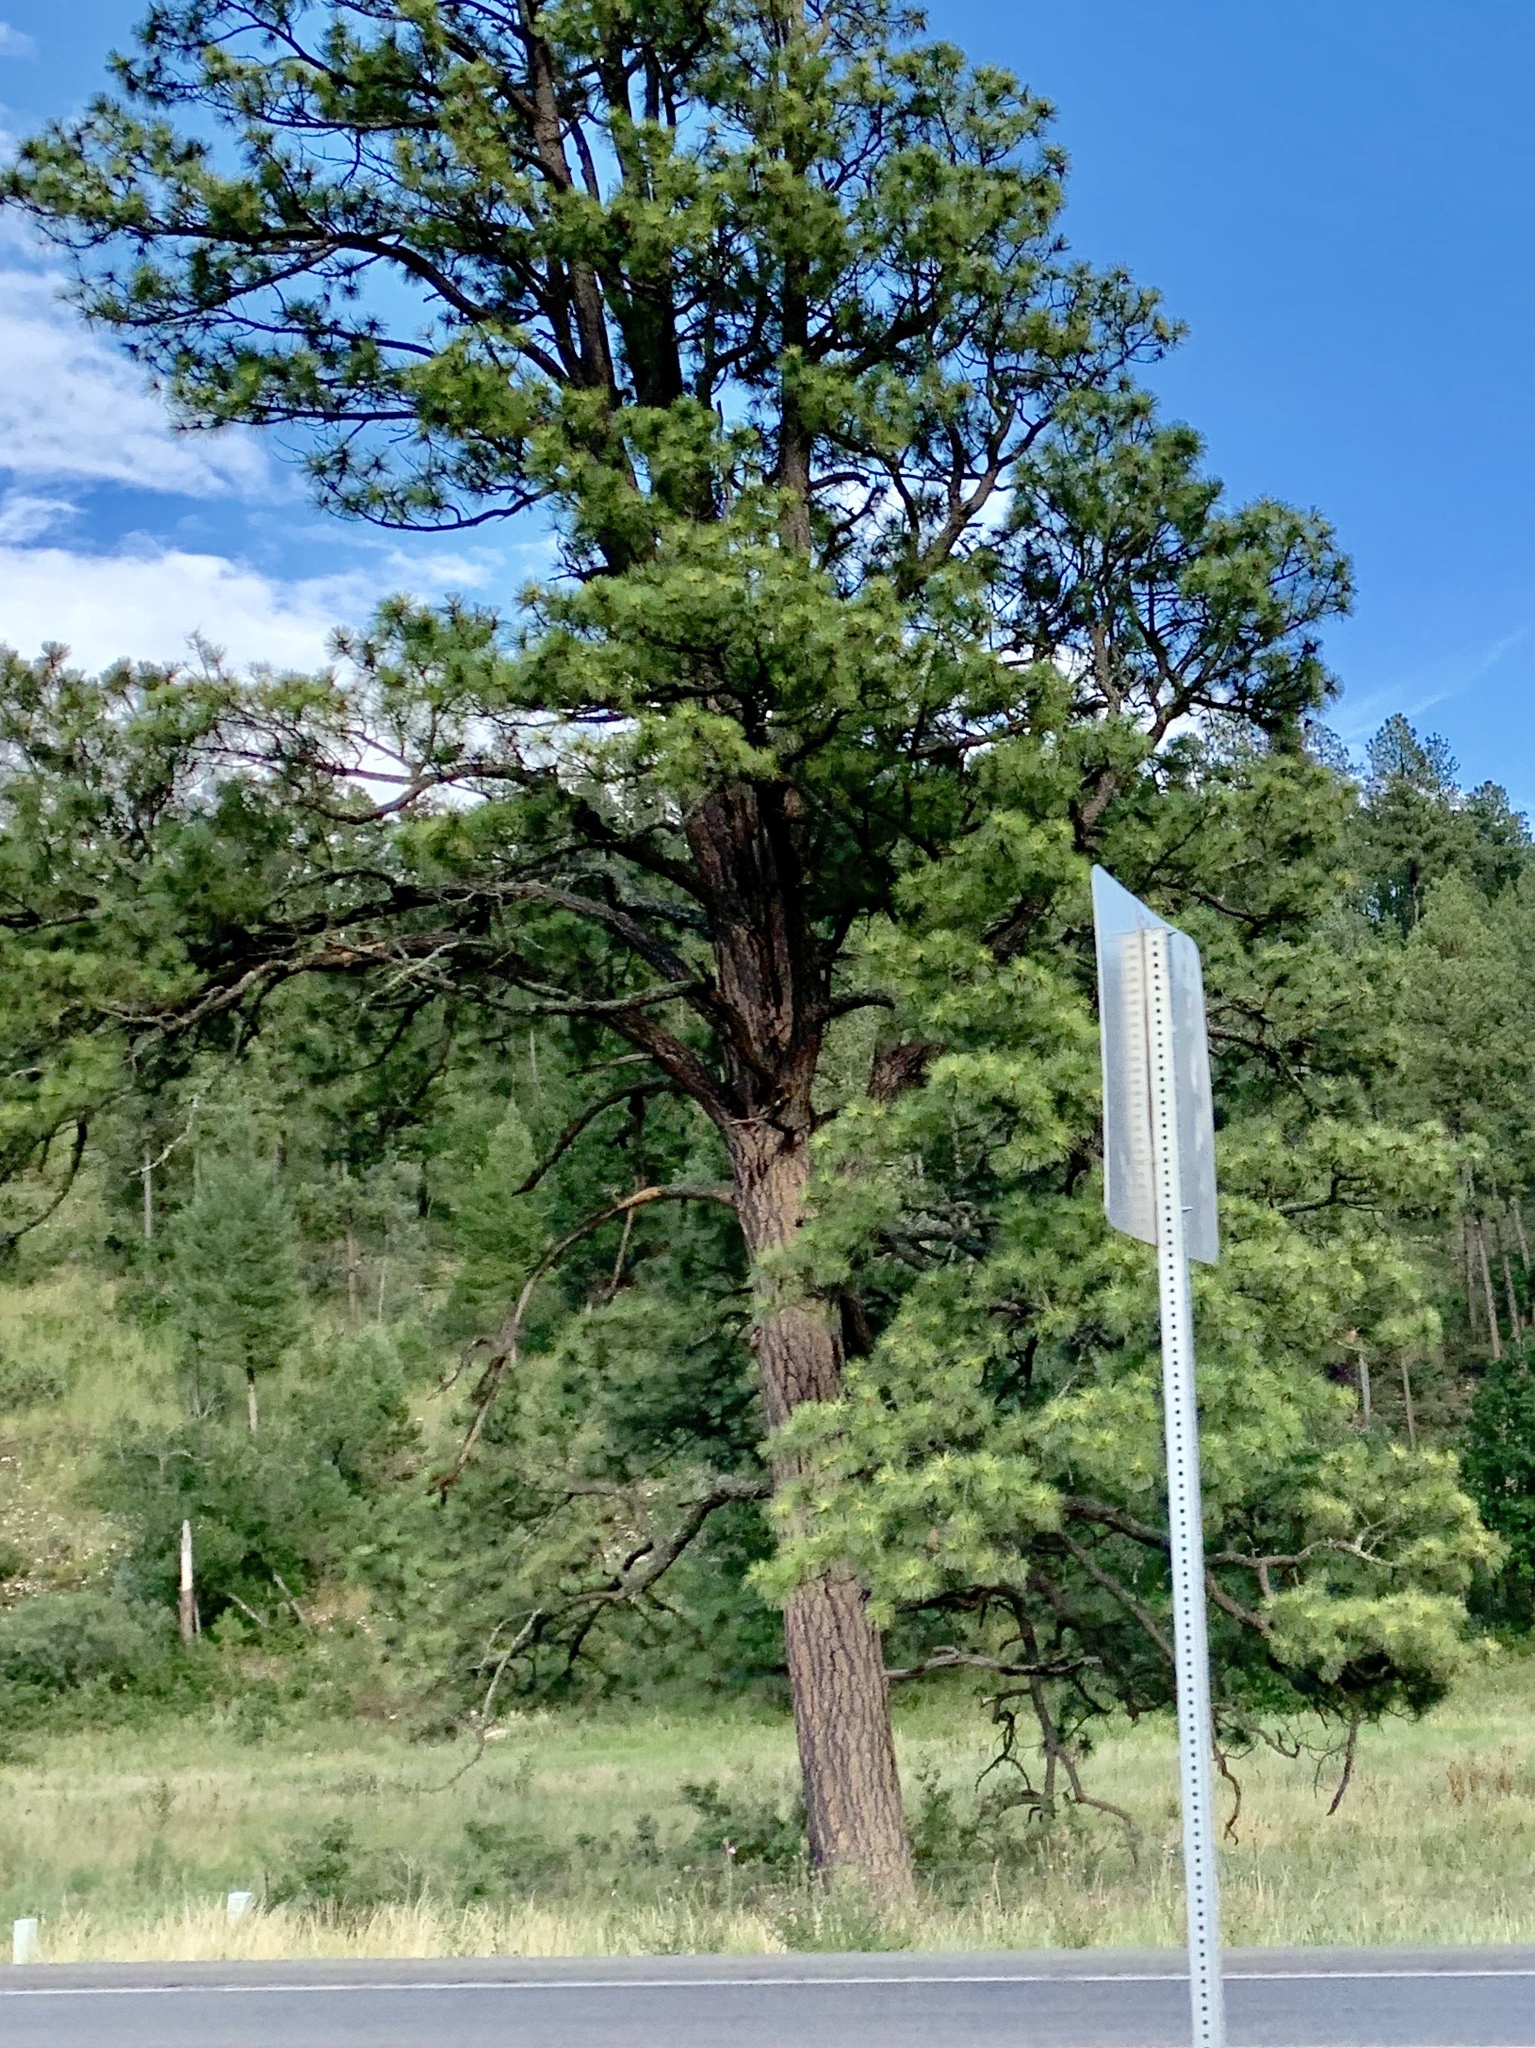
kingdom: Plantae
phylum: Tracheophyta
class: Pinopsida
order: Pinales
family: Pinaceae
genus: Pinus
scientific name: Pinus ponderosa
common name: Western yellow-pine
